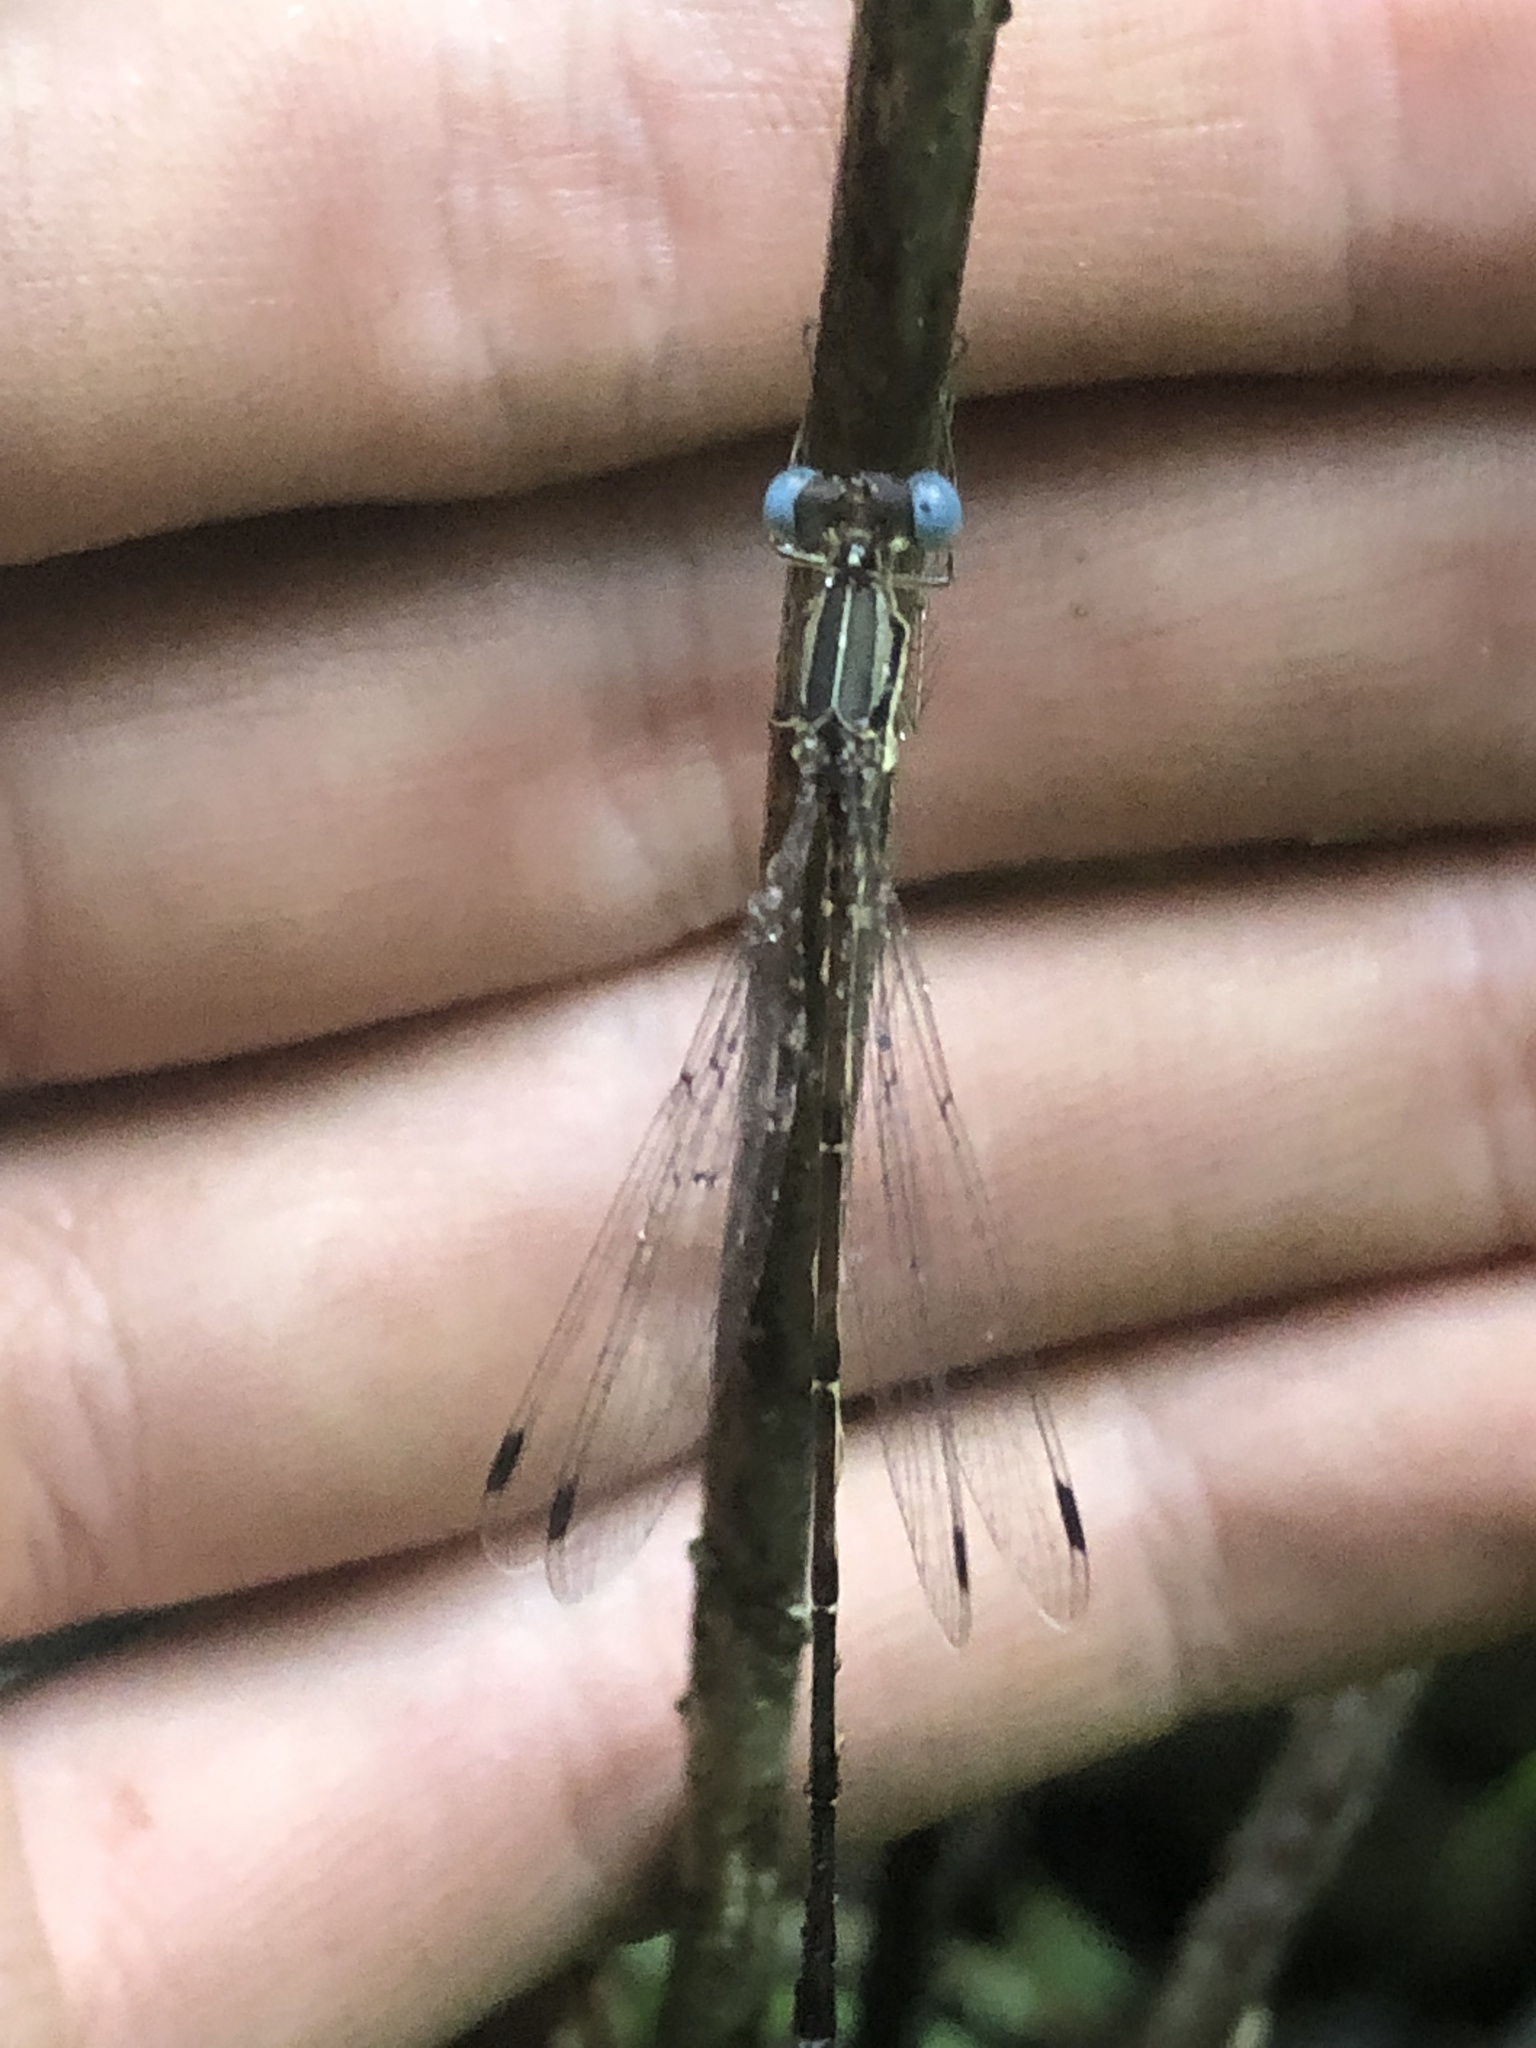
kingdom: Animalia
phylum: Arthropoda
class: Insecta
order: Odonata
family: Lestidae
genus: Lestes
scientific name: Lestes rectangularis
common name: Slender spreadwing
